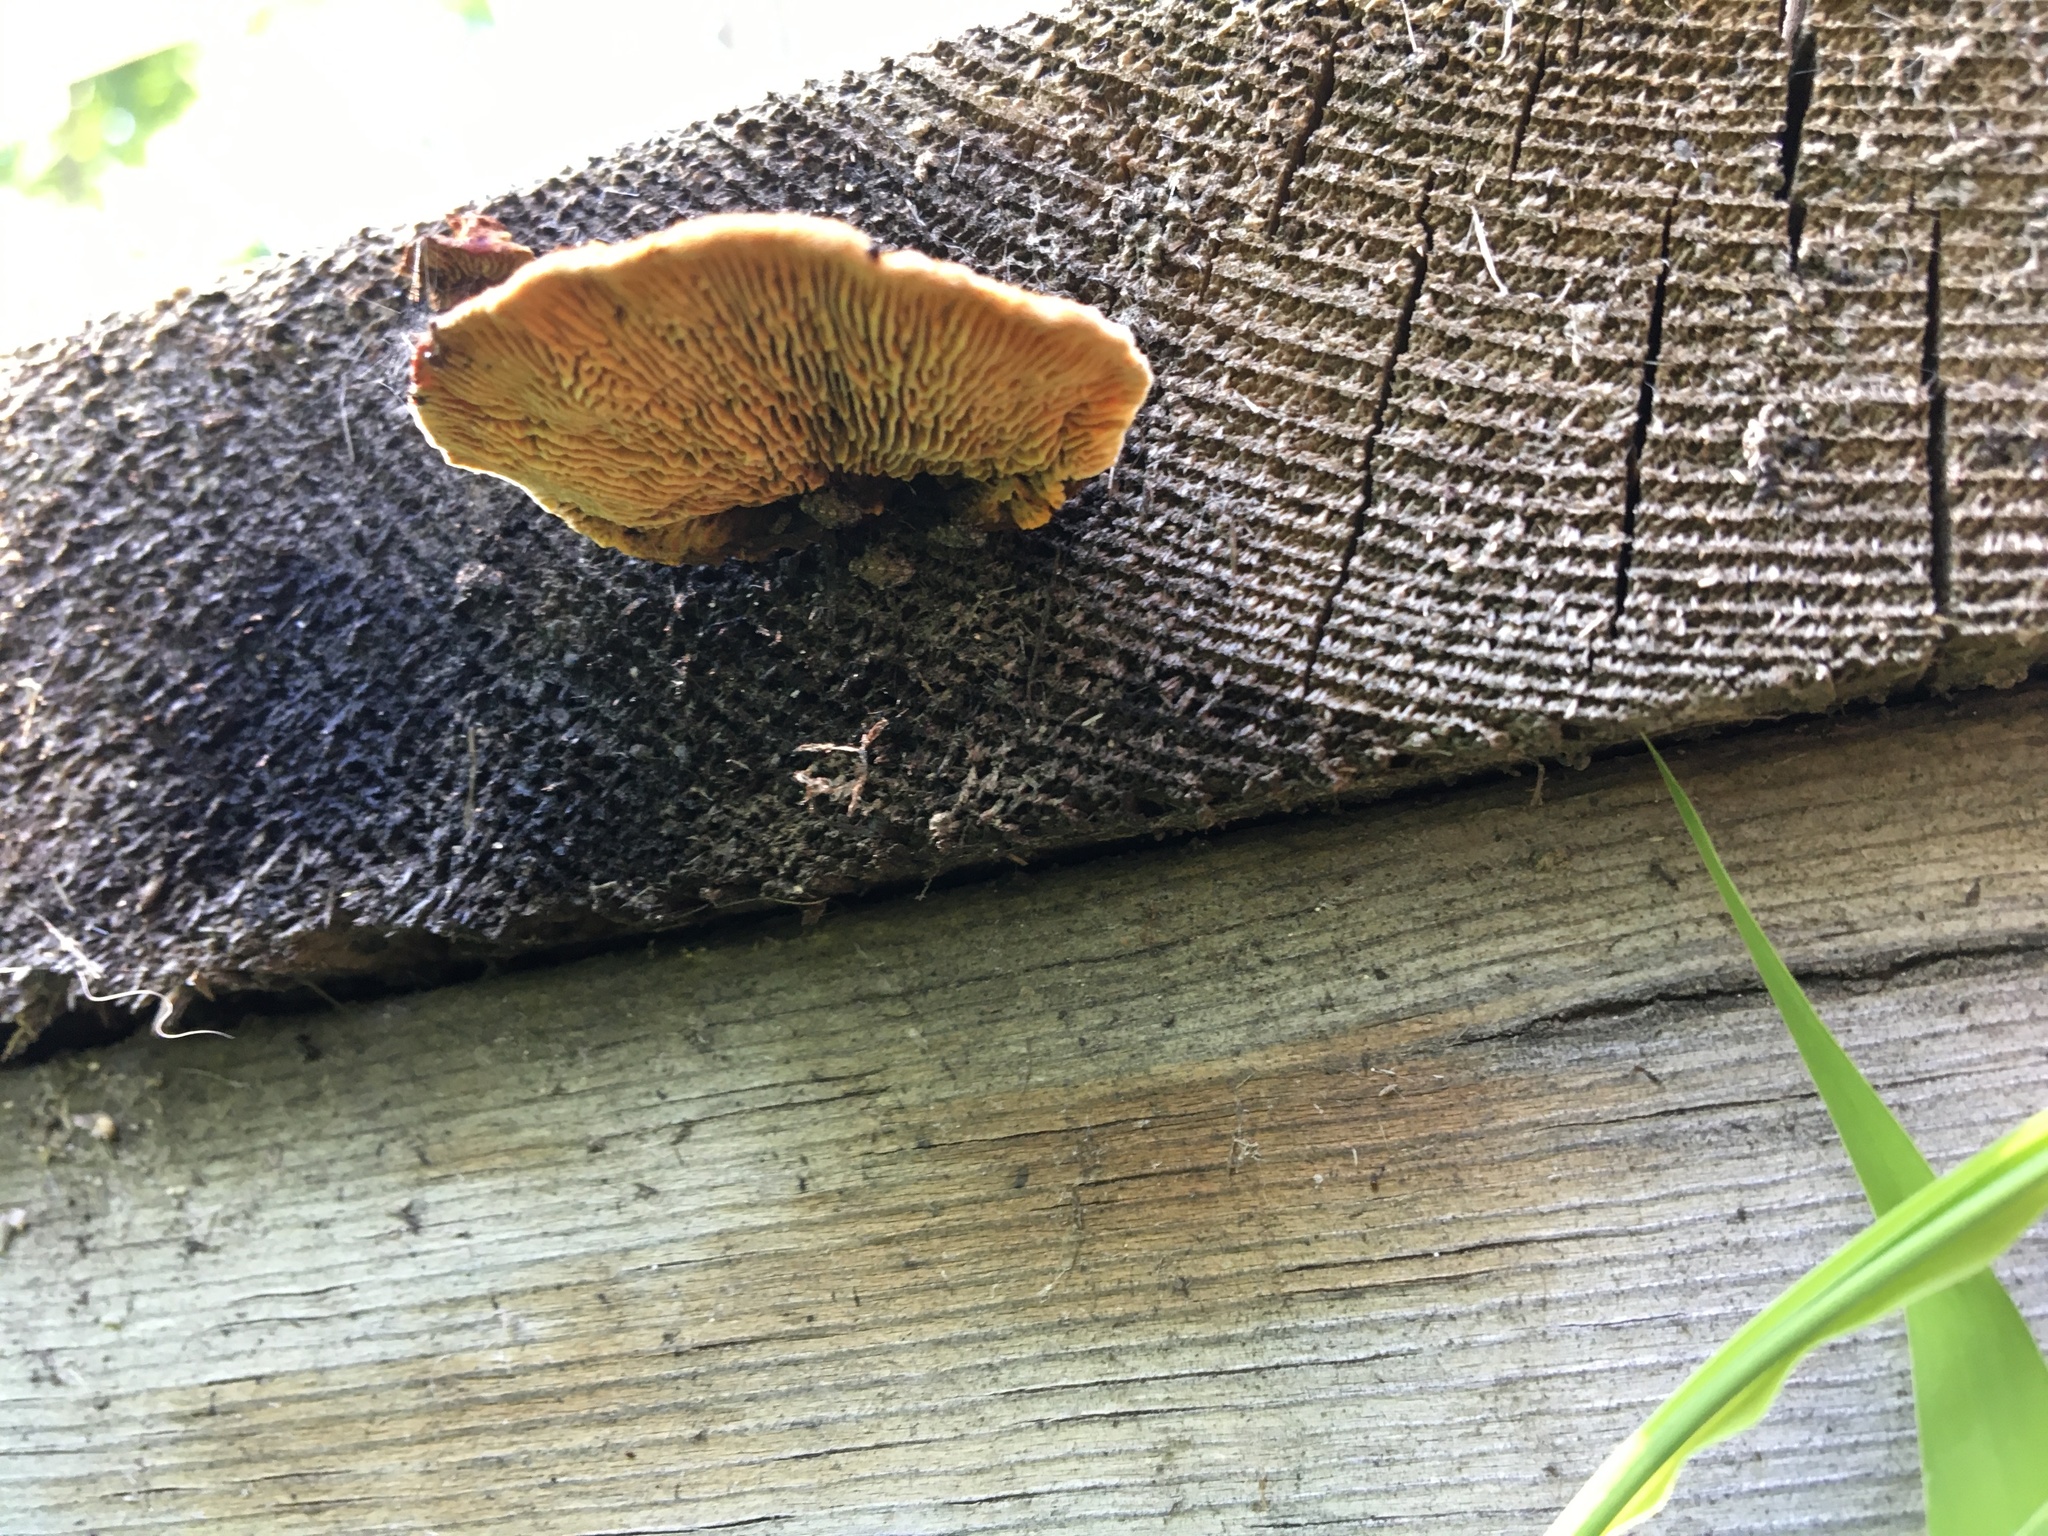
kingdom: Fungi
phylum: Basidiomycota
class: Agaricomycetes
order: Gloeophyllales
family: Gloeophyllaceae
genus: Gloeophyllum
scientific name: Gloeophyllum sepiarium
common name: Conifer mazegill
